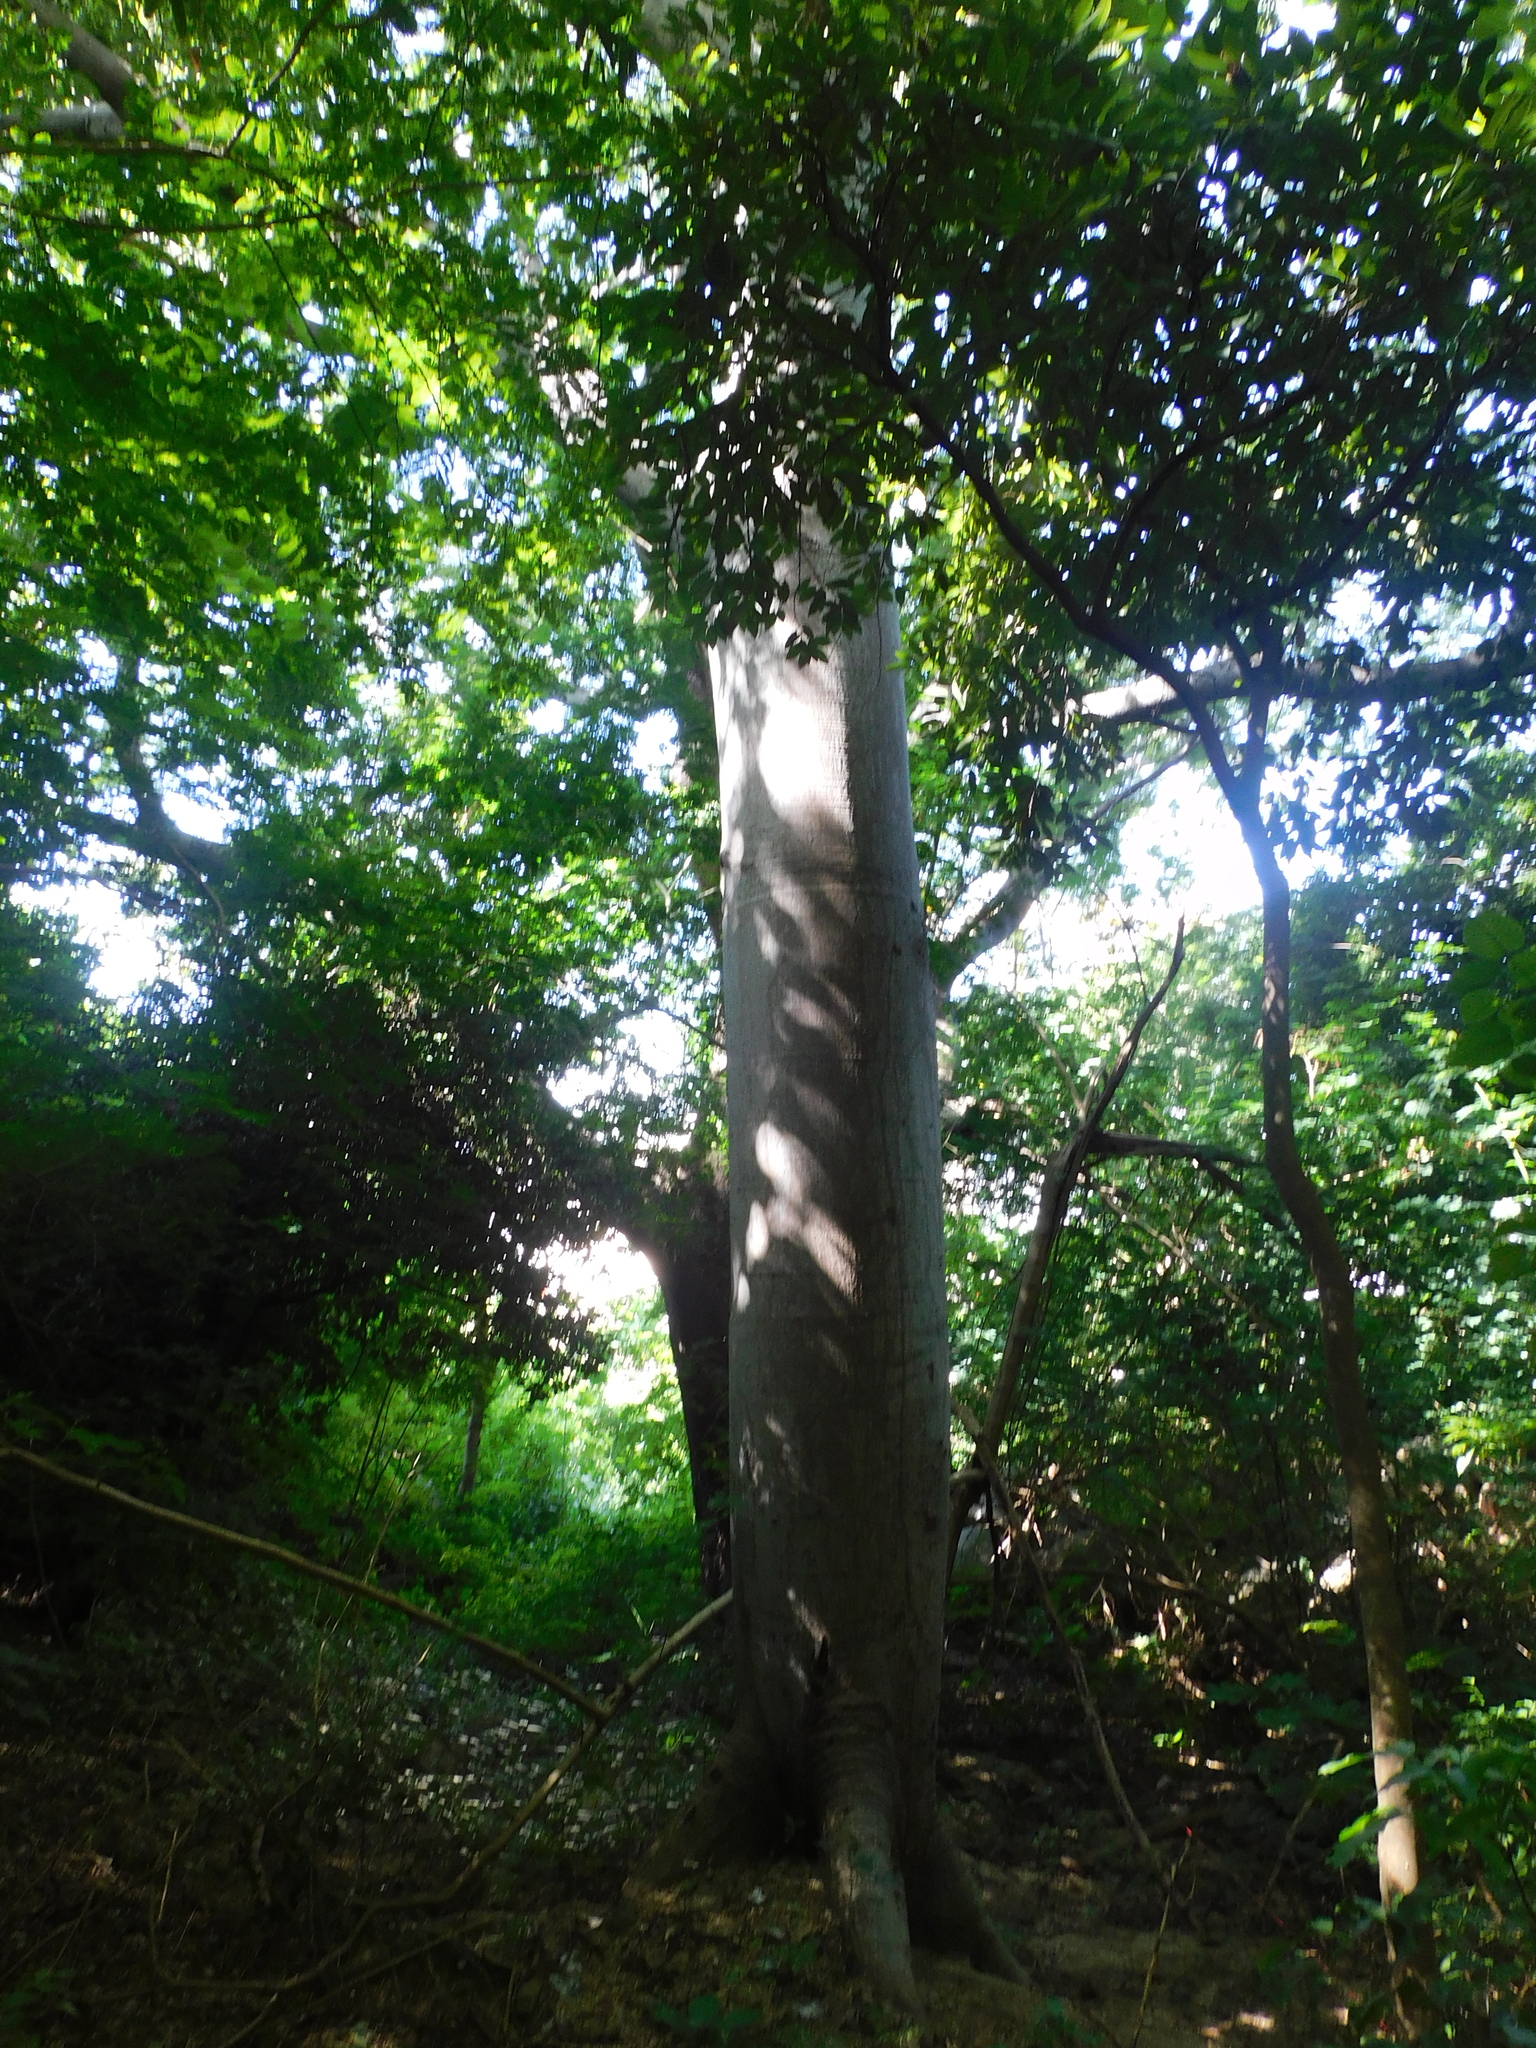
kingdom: Plantae
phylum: Tracheophyta
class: Magnoliopsida
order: Malvales
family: Malvaceae
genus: Ceiba
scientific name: Ceiba pentandra
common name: Kapok
